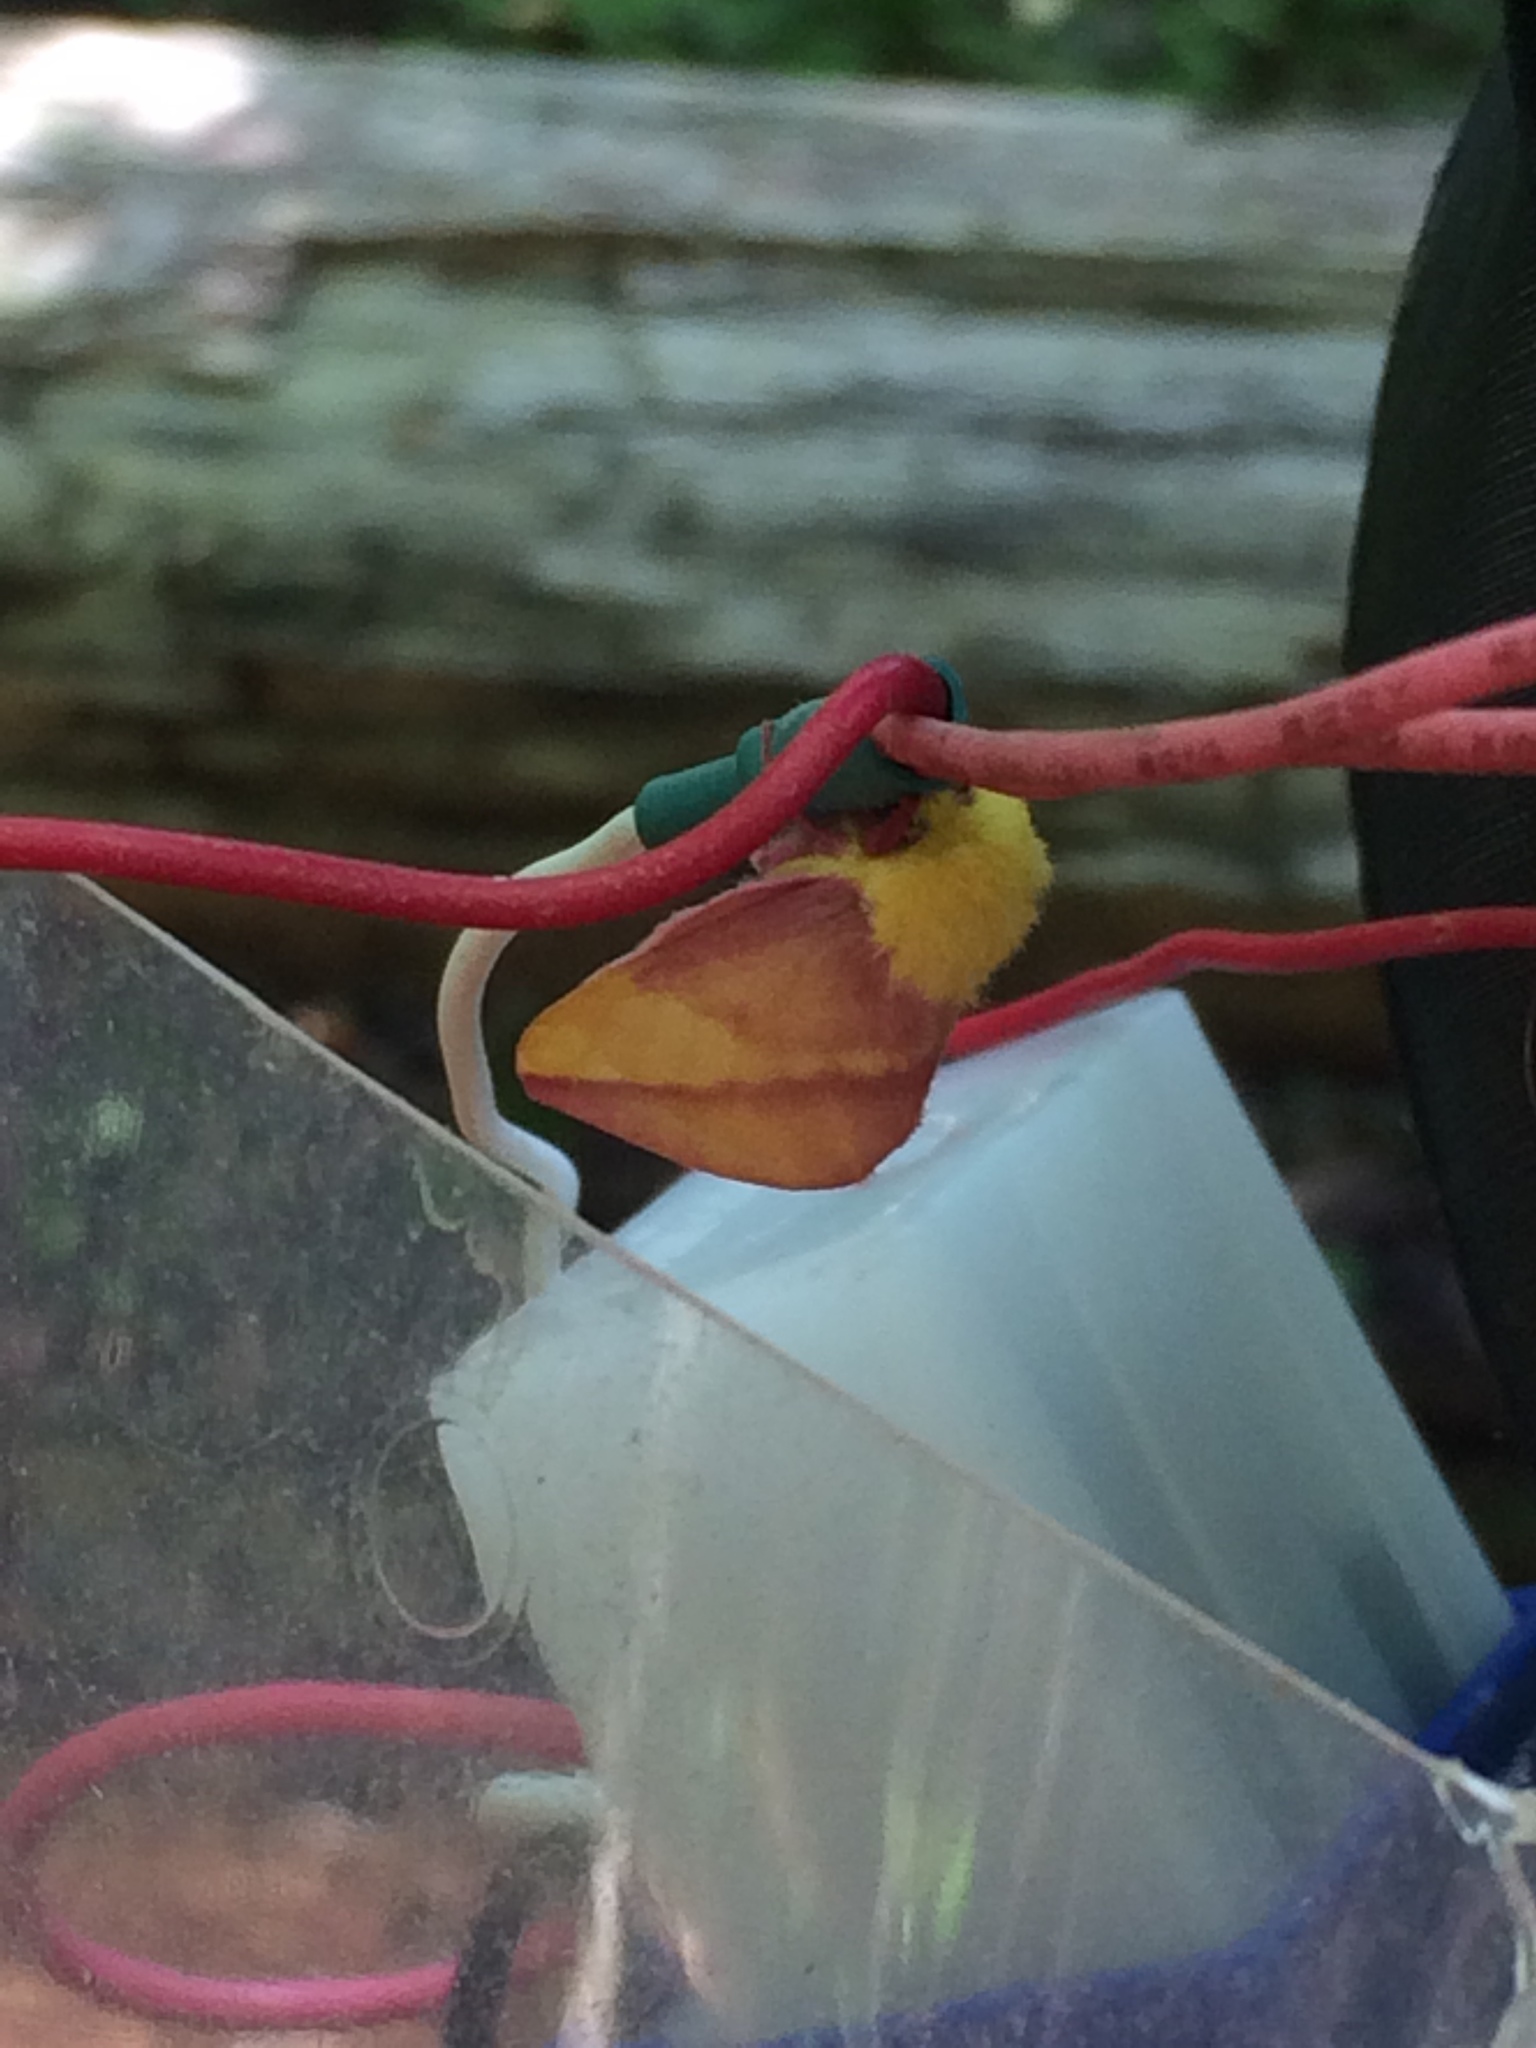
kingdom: Animalia
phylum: Arthropoda
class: Insecta
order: Lepidoptera
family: Saturniidae
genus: Dryocampa
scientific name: Dryocampa rubicunda
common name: Rosy maple moth
